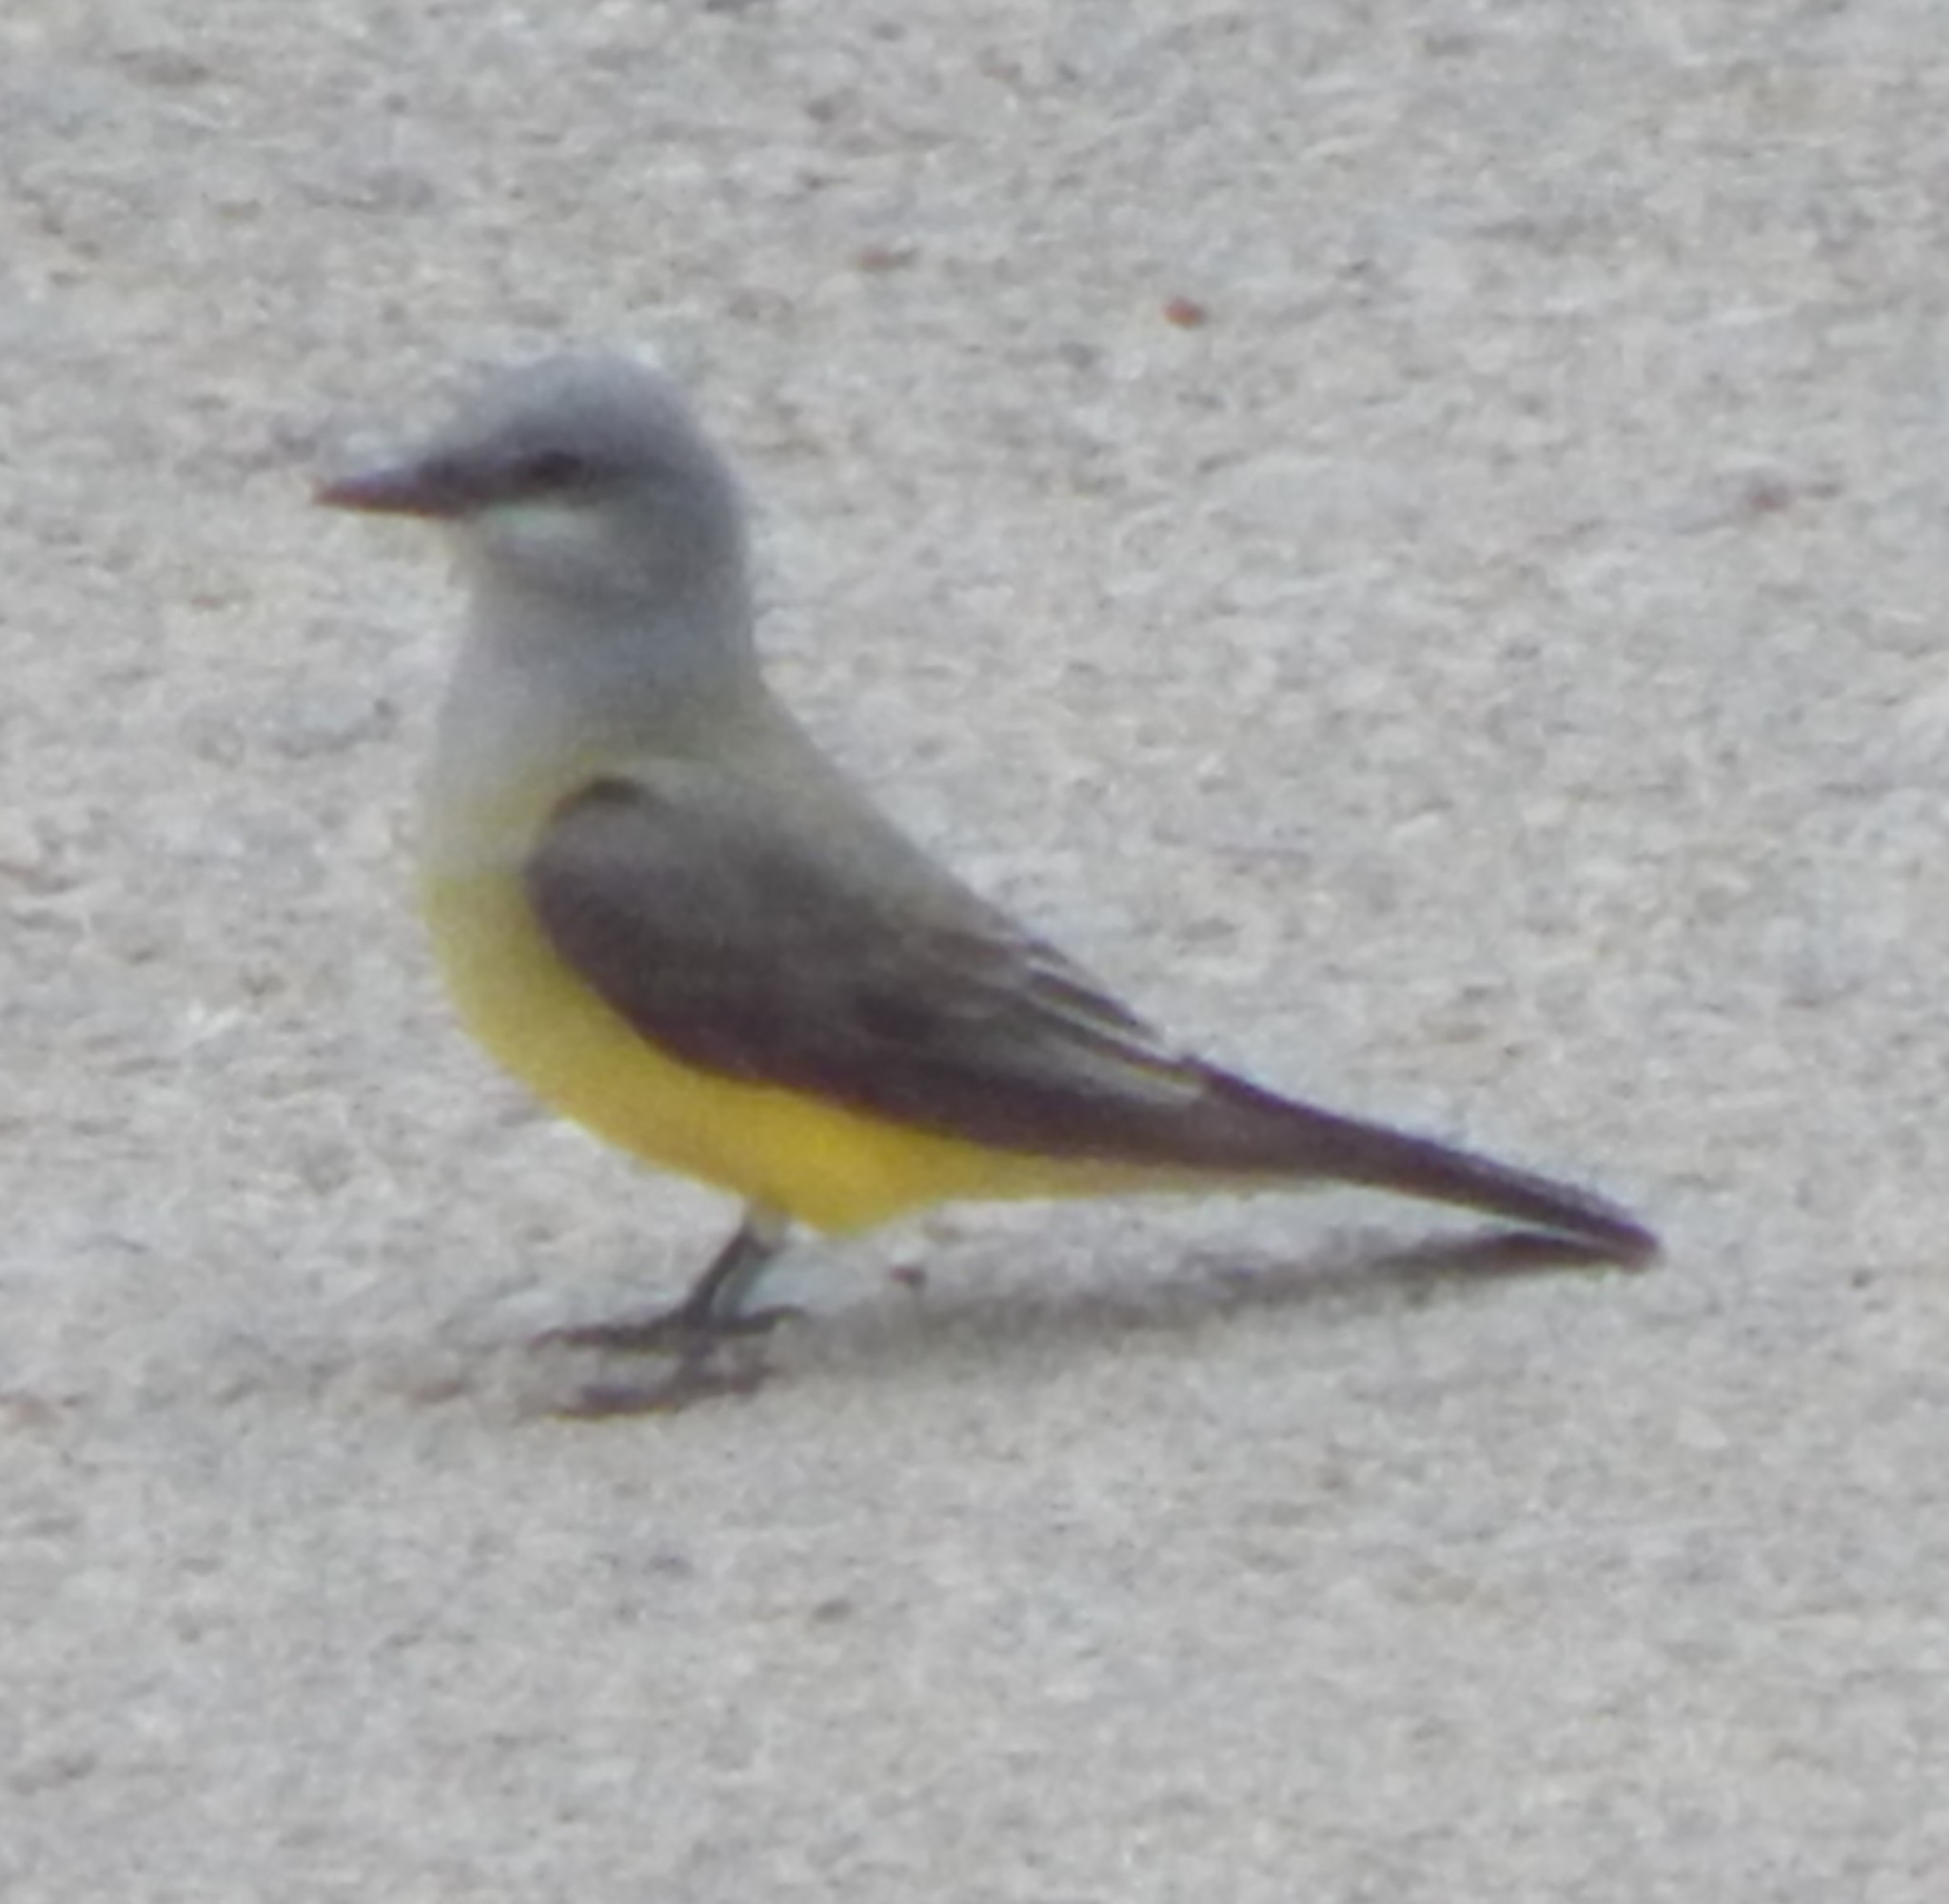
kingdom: Animalia
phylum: Chordata
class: Aves
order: Passeriformes
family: Tyrannidae
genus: Tyrannus
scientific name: Tyrannus verticalis
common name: Western kingbird
